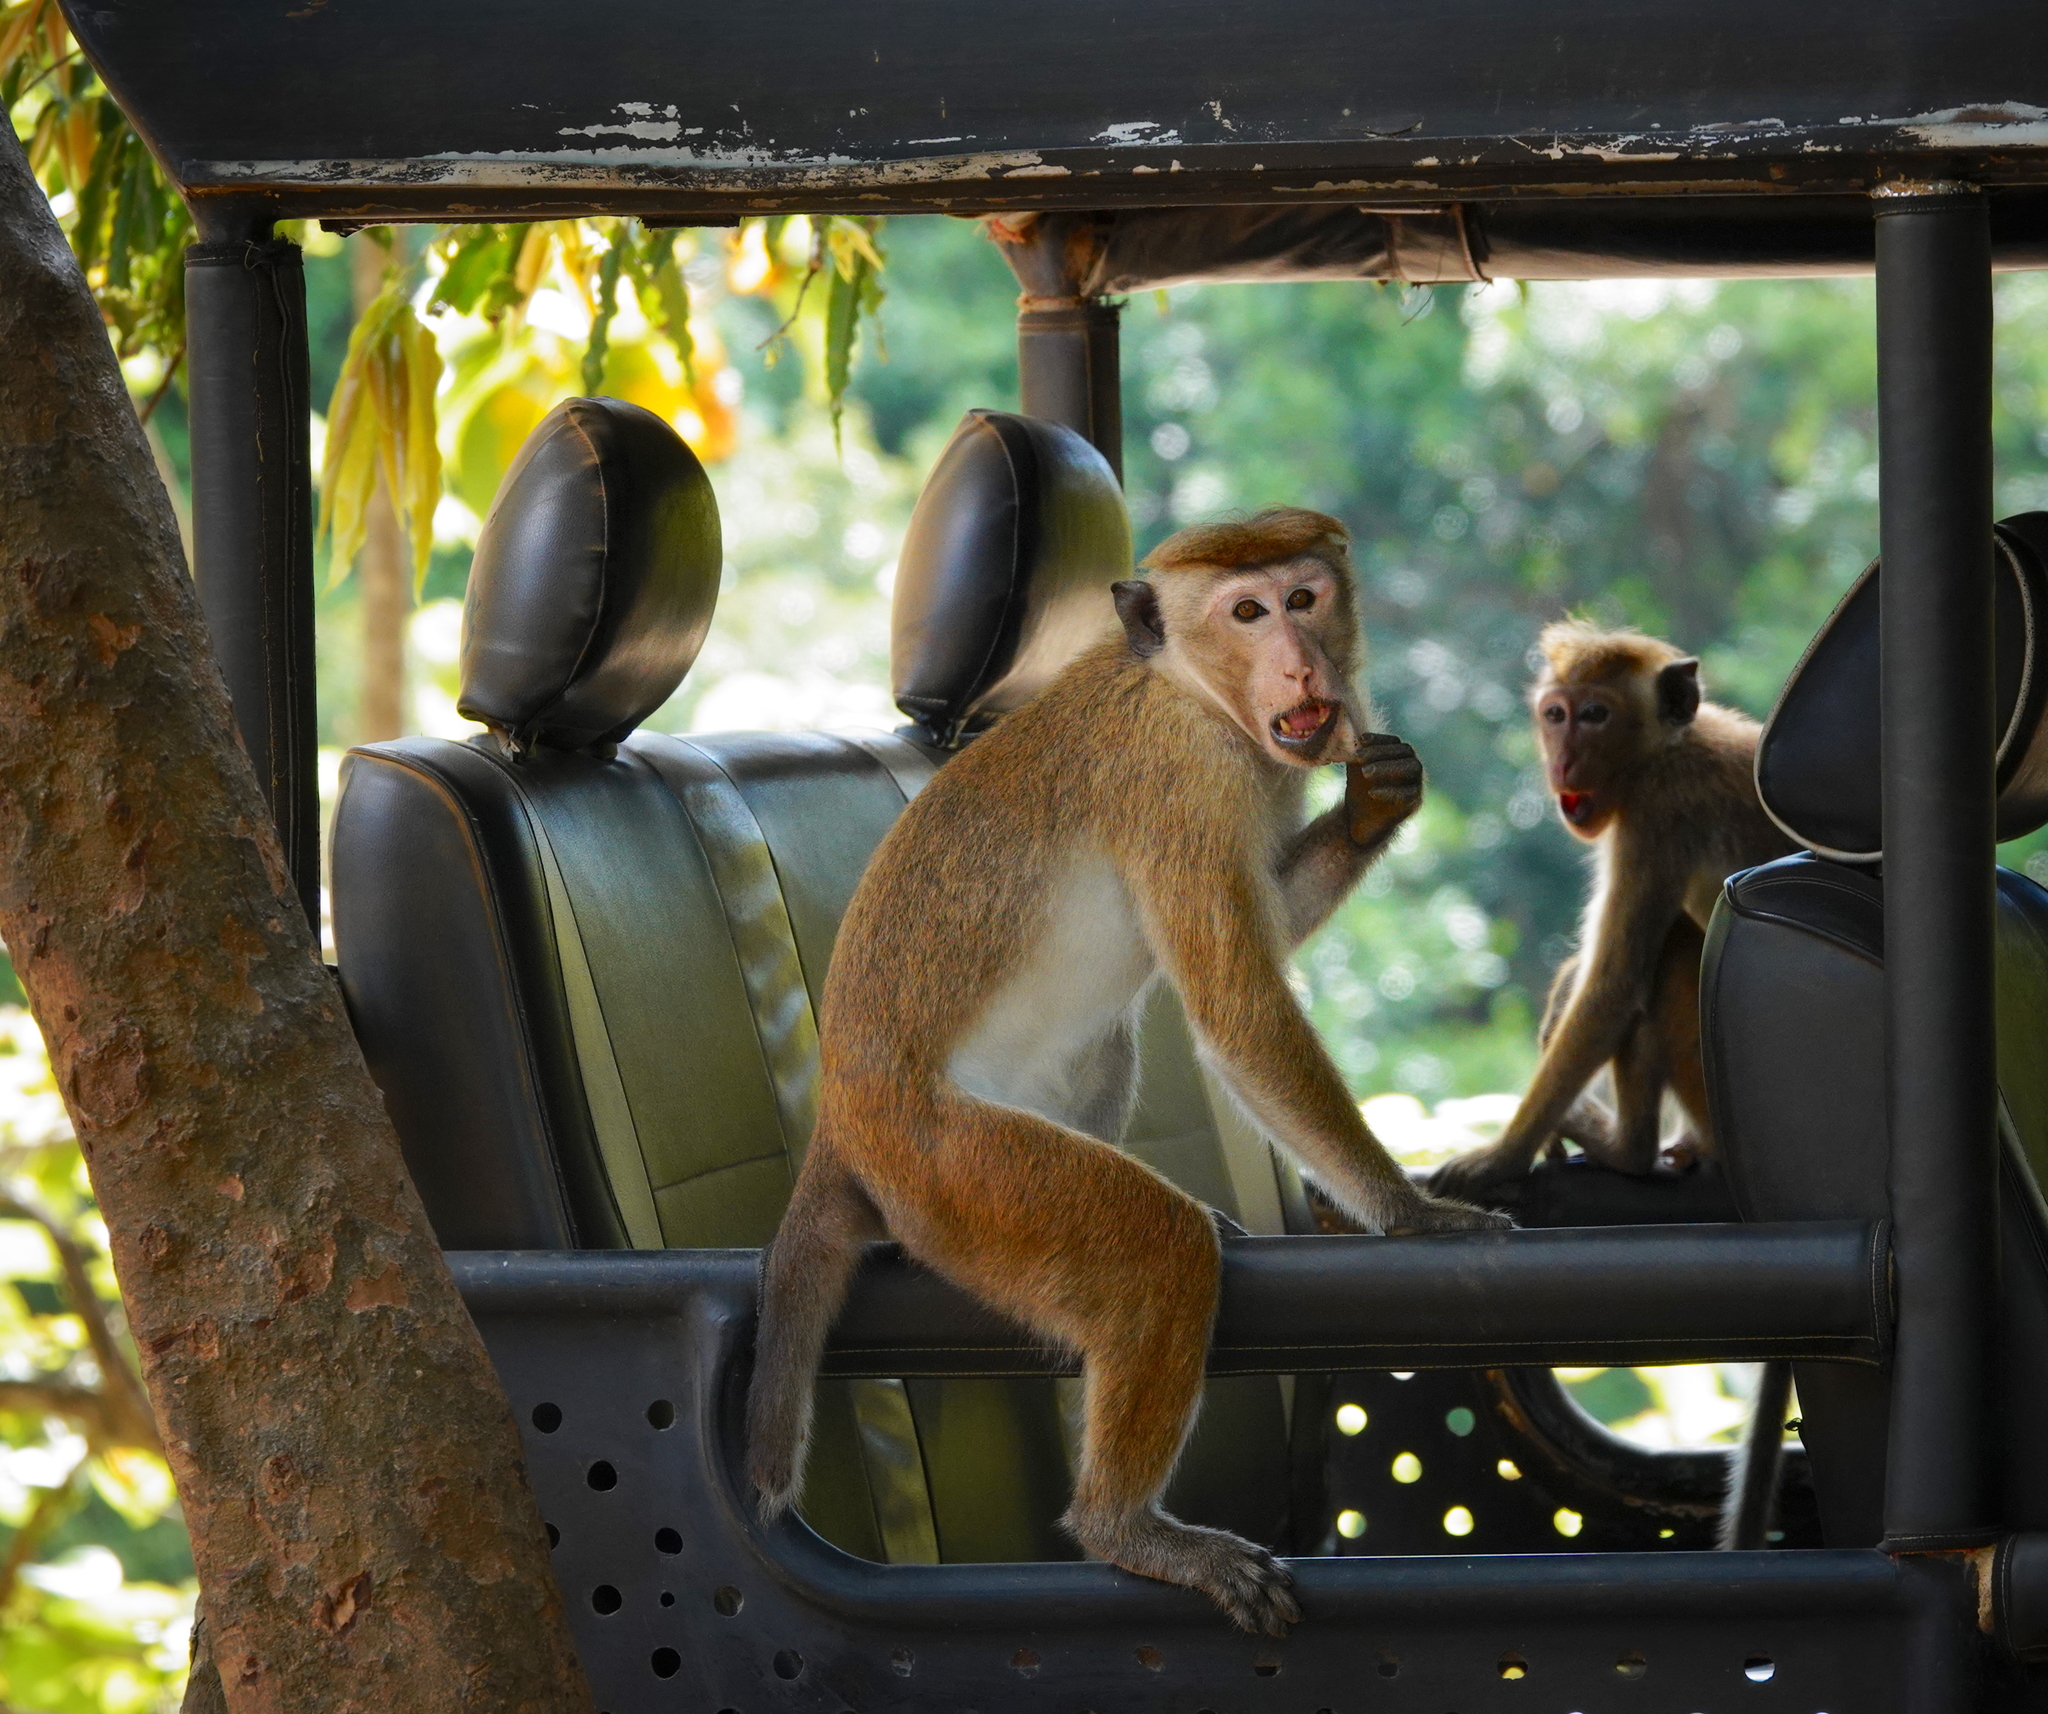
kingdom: Animalia
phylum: Chordata
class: Mammalia
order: Primates
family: Cercopithecidae
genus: Macaca
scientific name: Macaca sinica
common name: Toque macaque
